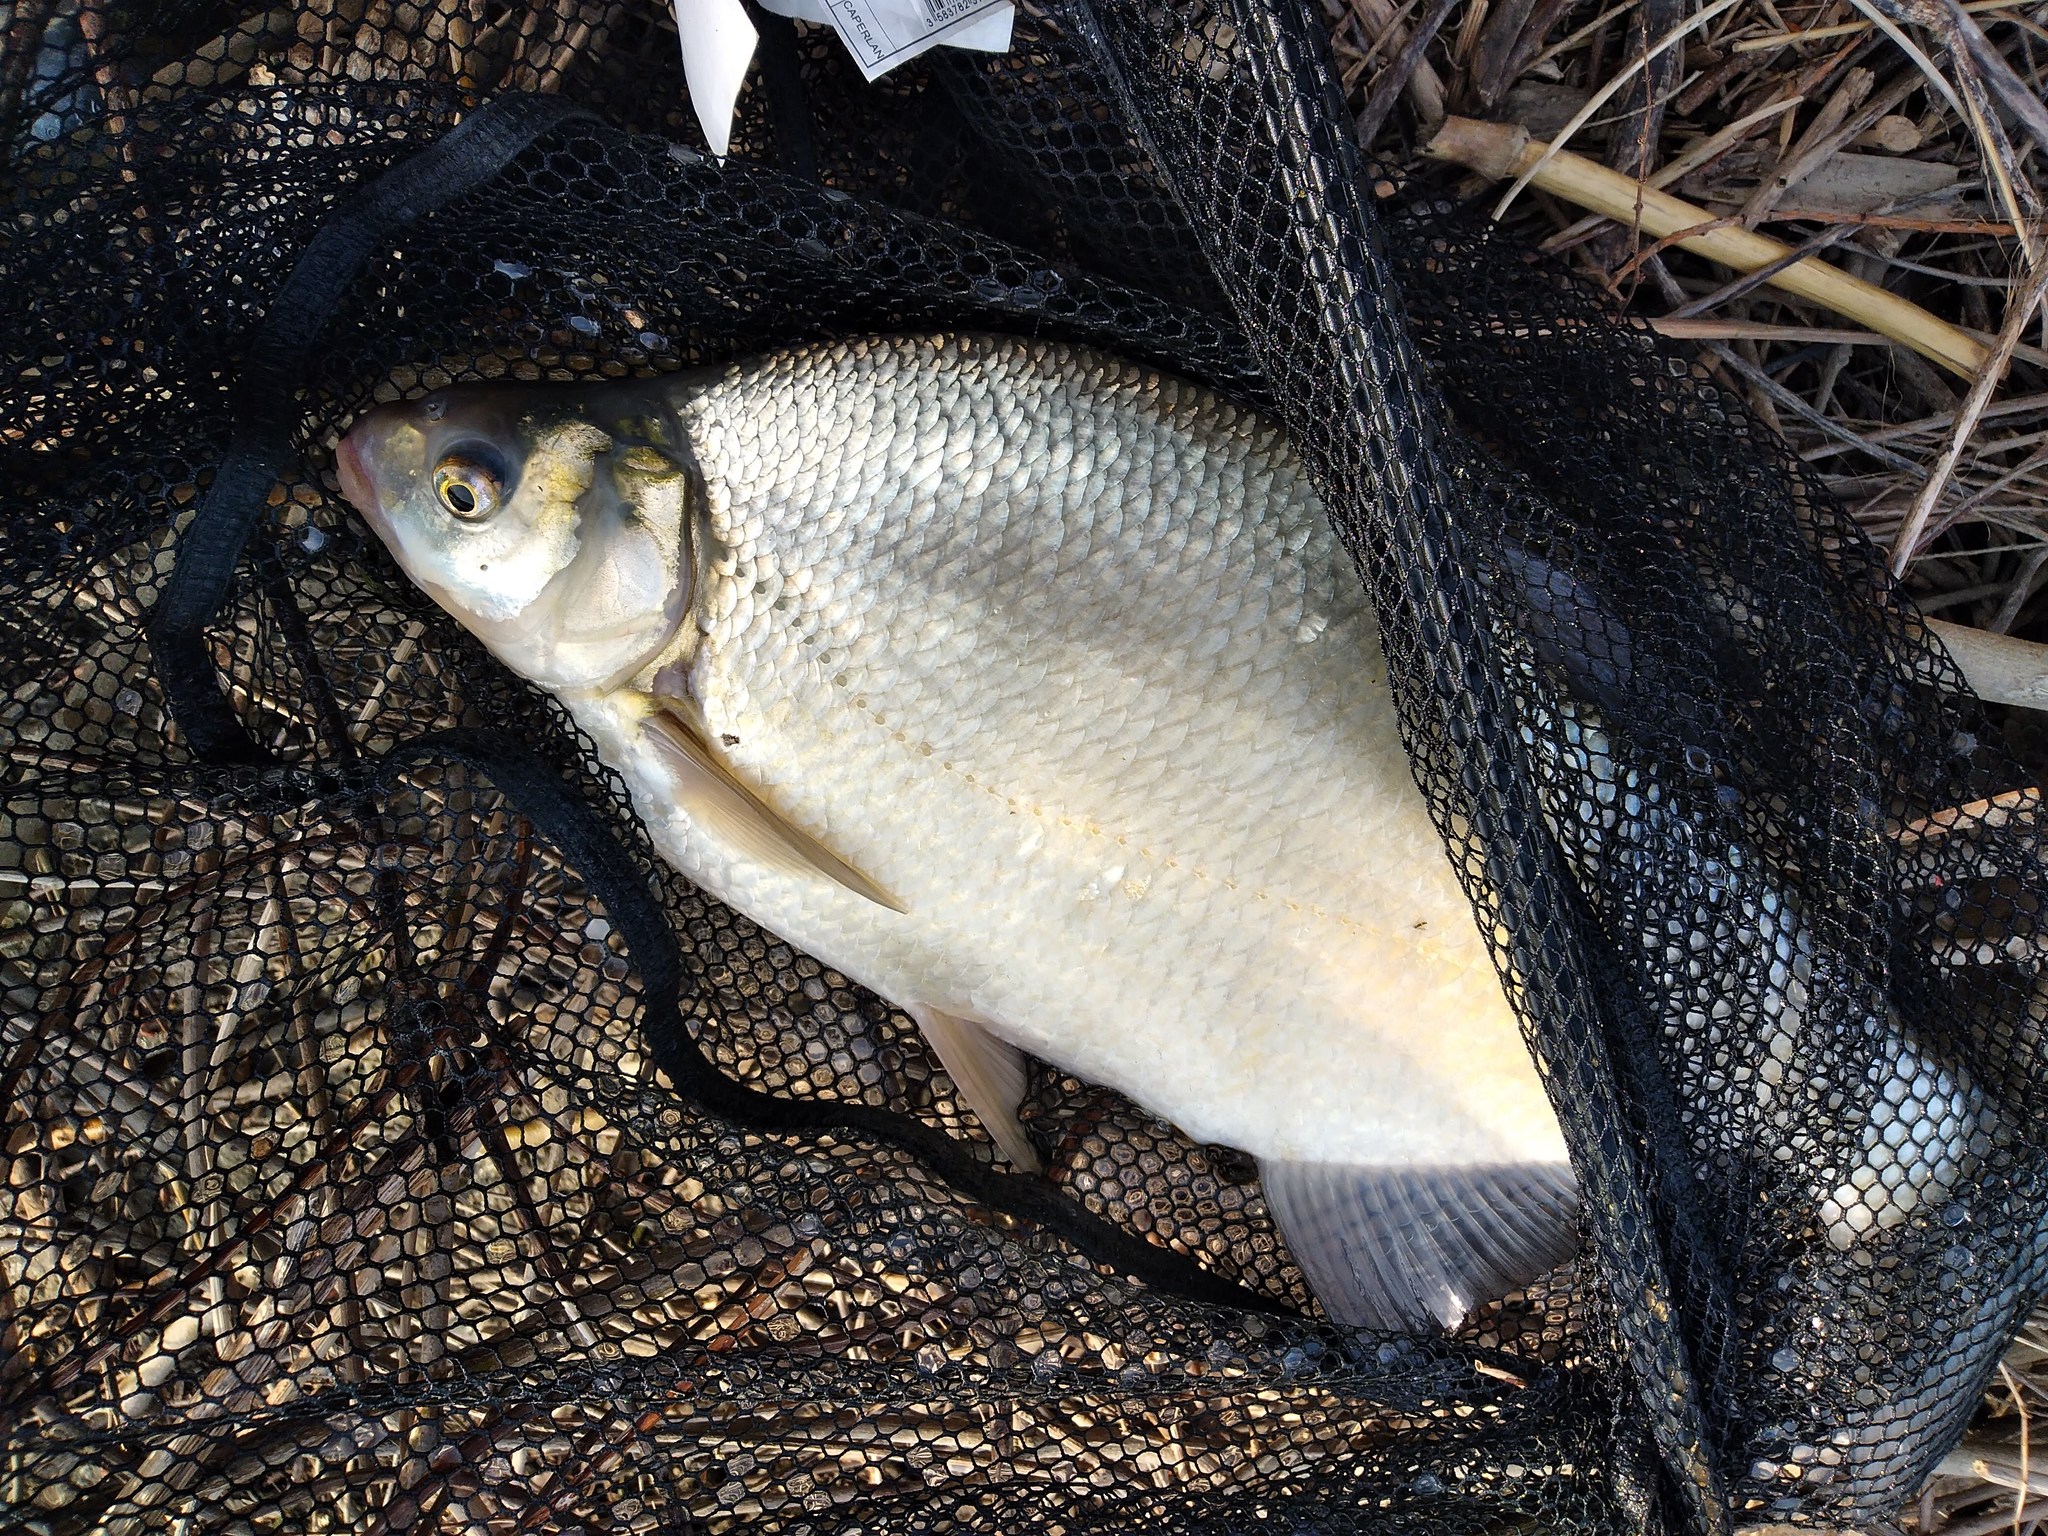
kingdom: Animalia
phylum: Chordata
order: Cypriniformes
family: Cyprinidae
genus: Abramis
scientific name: Abramis brama
